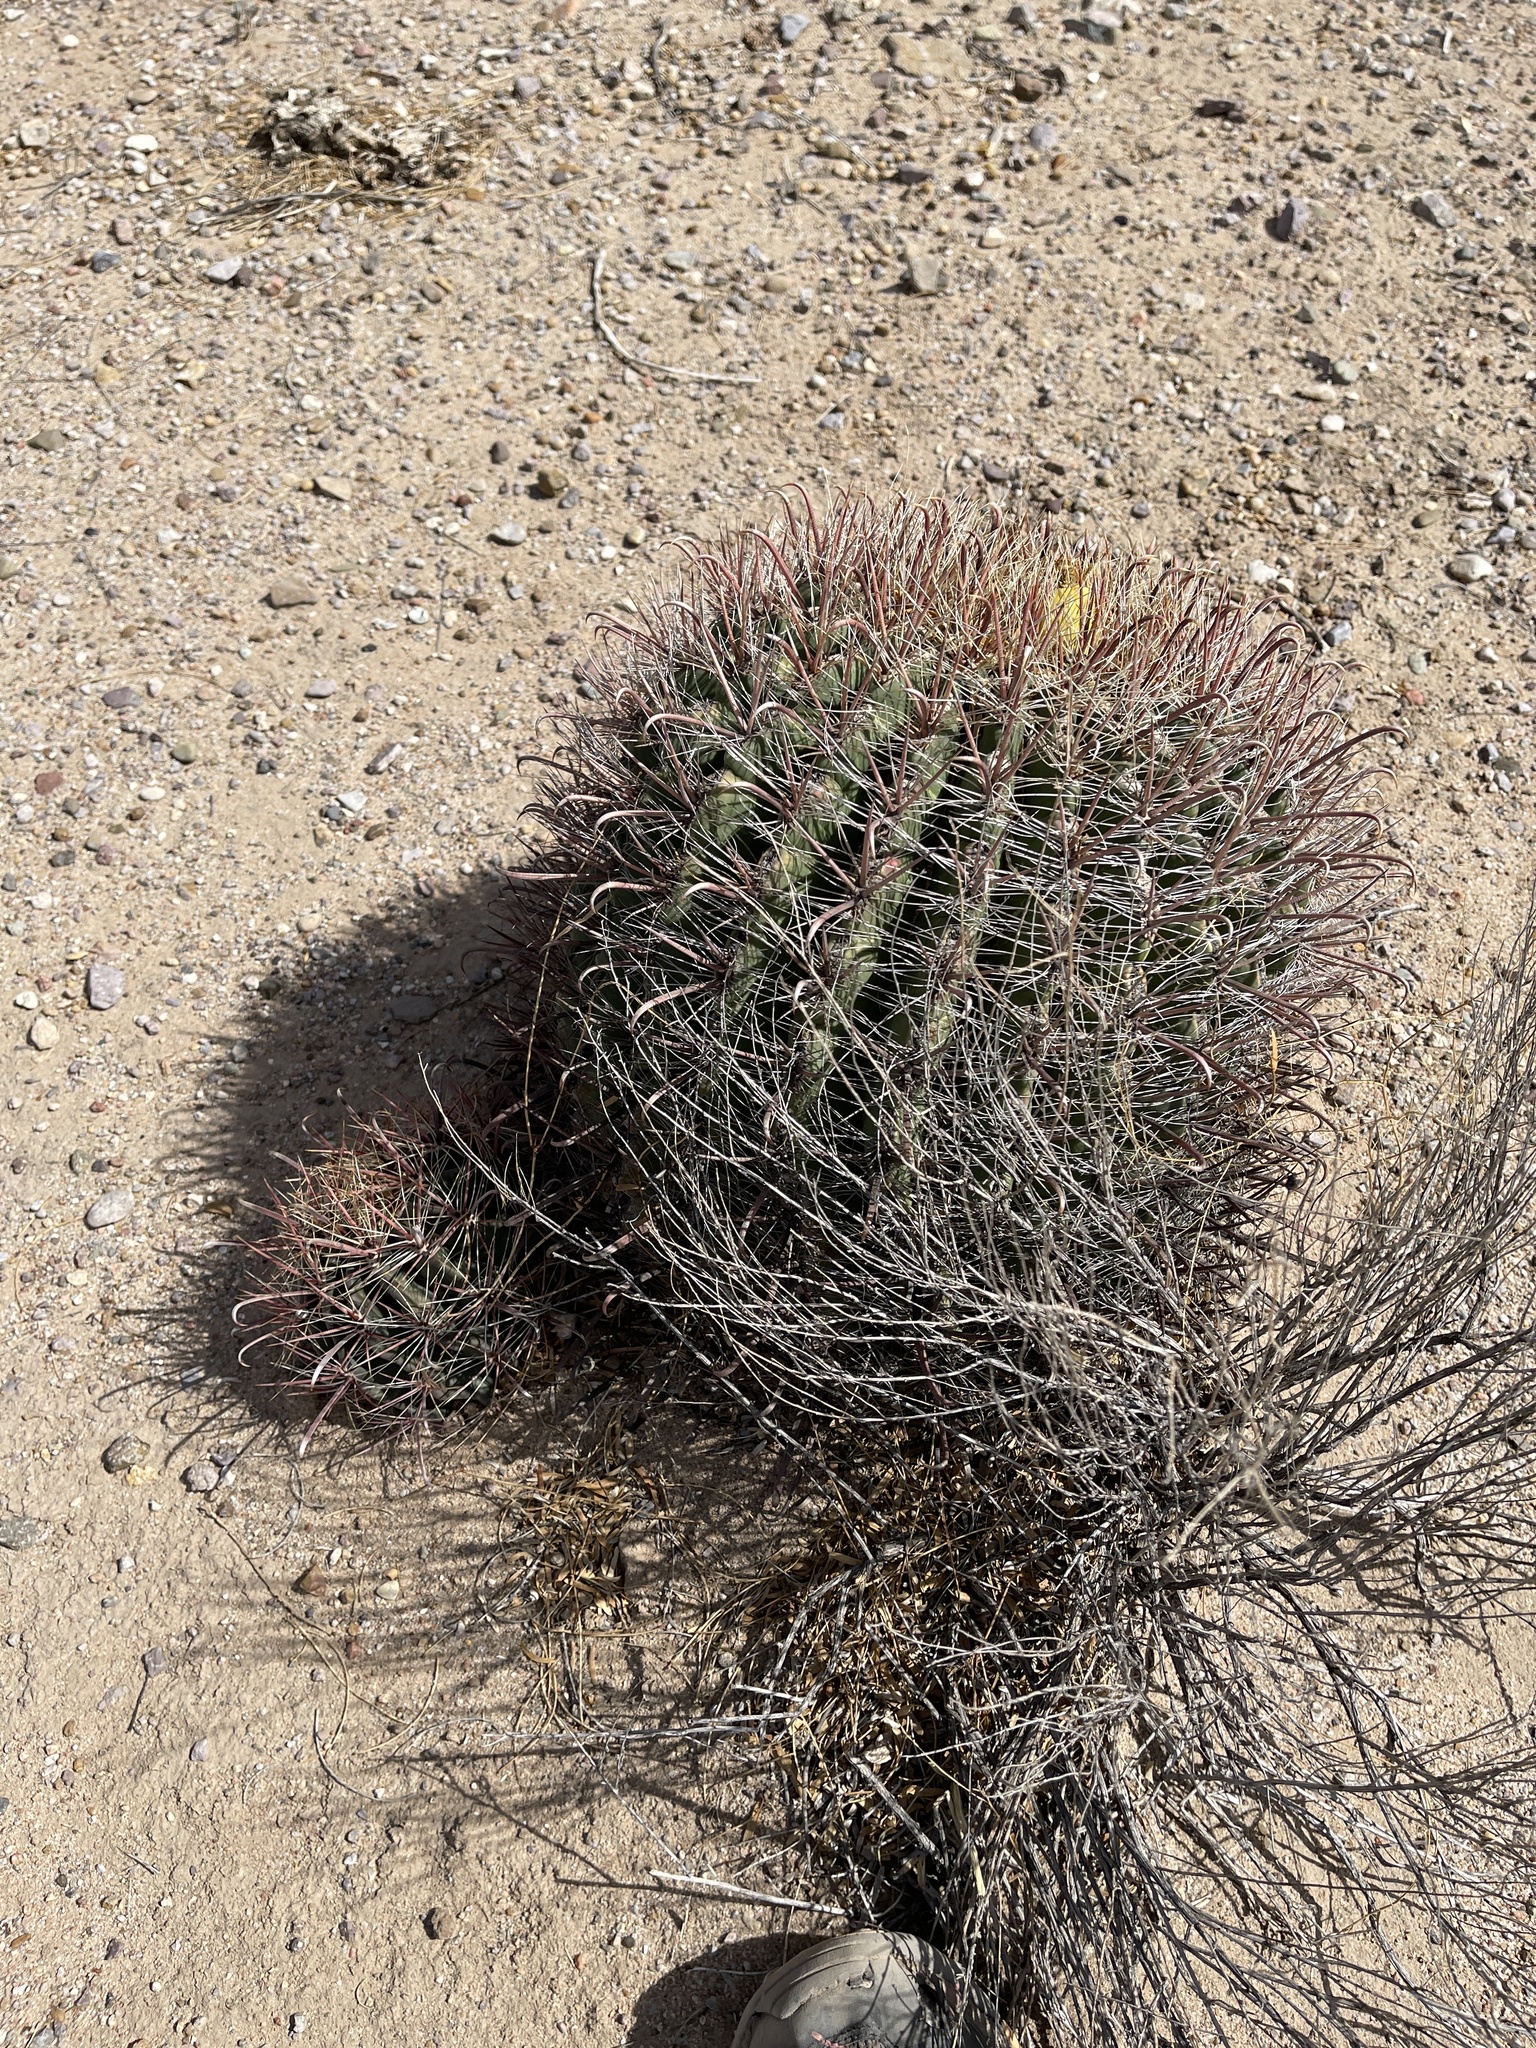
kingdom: Plantae
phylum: Tracheophyta
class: Magnoliopsida
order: Caryophyllales
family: Cactaceae
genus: Ferocactus
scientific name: Ferocactus wislizeni
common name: Candy barrel cactus
